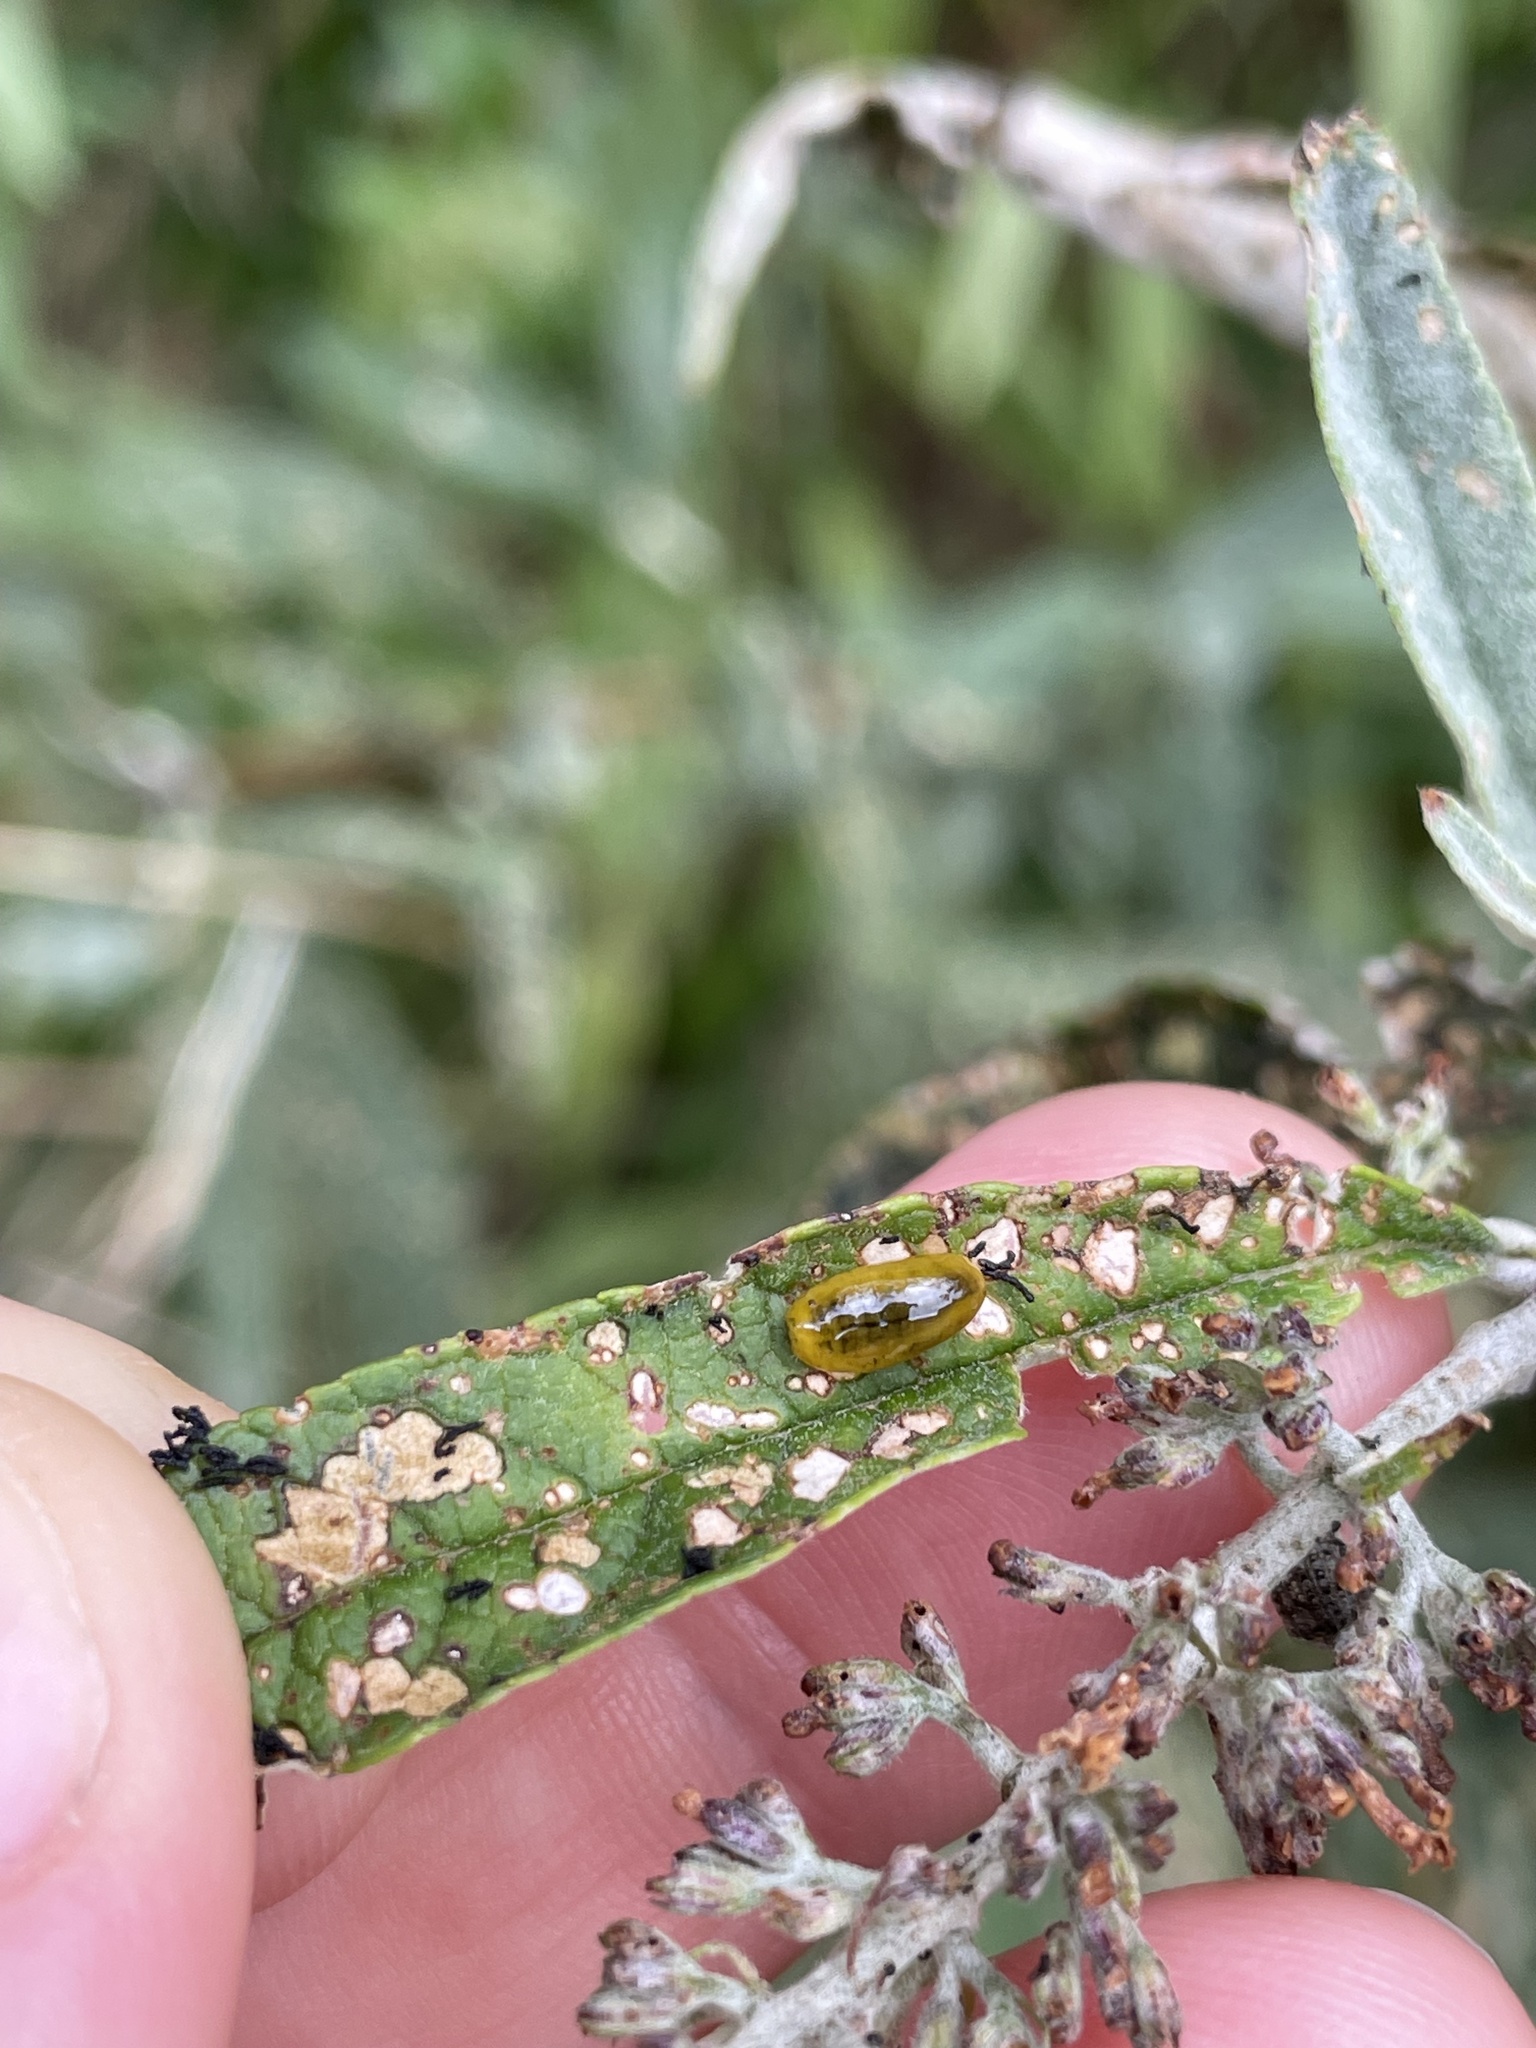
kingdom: Animalia
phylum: Arthropoda
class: Insecta
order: Coleoptera
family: Curculionidae
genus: Cleopus
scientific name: Cleopus japonicus
